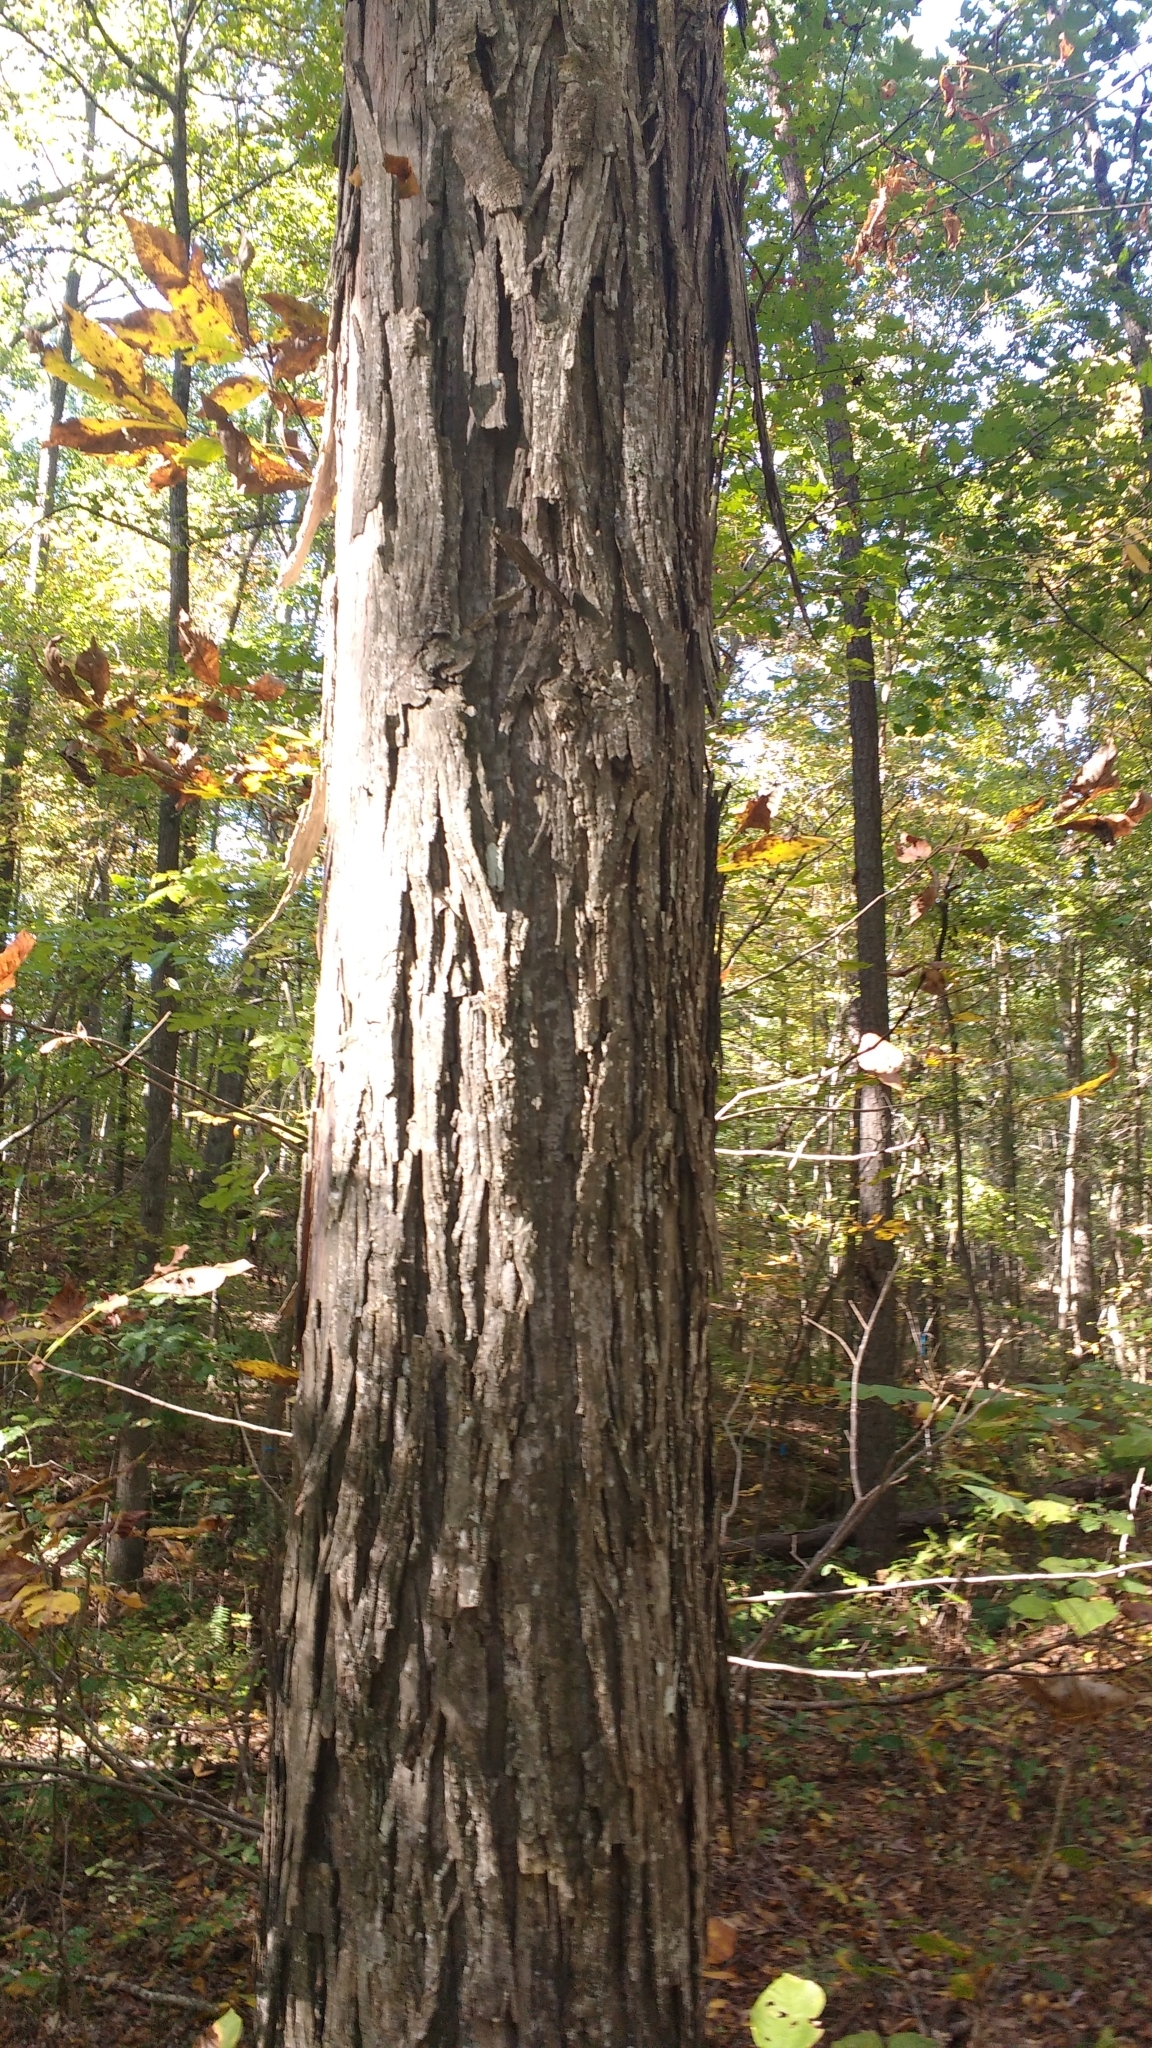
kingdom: Plantae
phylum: Tracheophyta
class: Magnoliopsida
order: Fagales
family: Juglandaceae
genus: Carya
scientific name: Carya ovata
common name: Shagbark hickory
